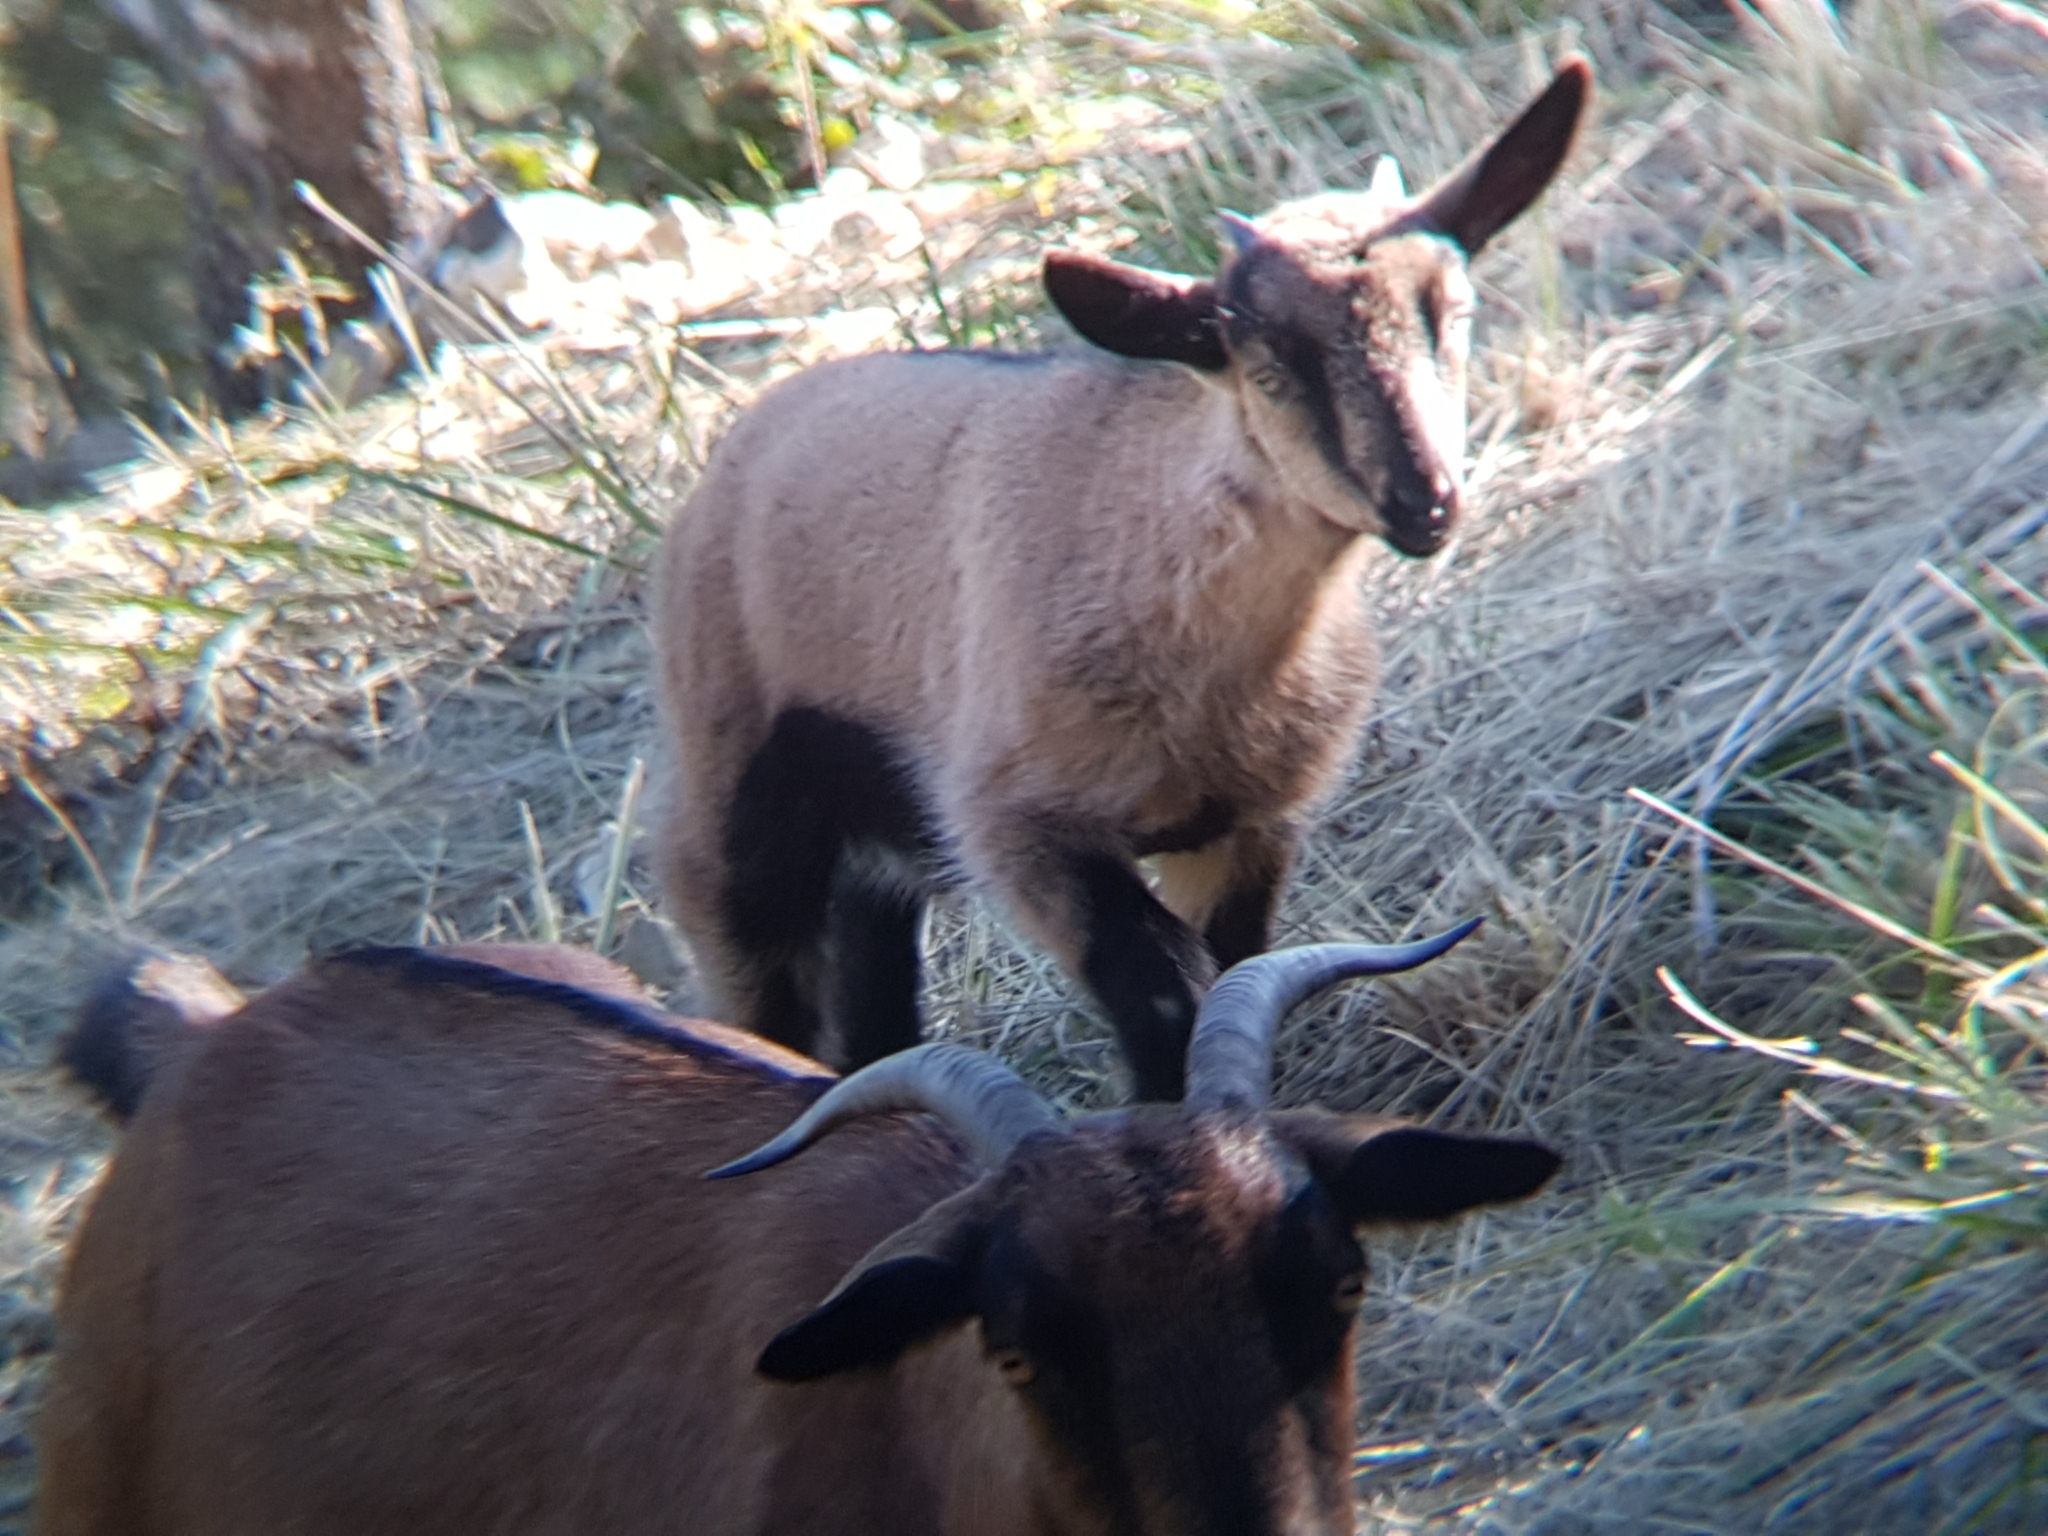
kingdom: Animalia
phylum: Chordata
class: Mammalia
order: Artiodactyla
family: Bovidae
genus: Capra
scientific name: Capra hircus
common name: Domestic goat
